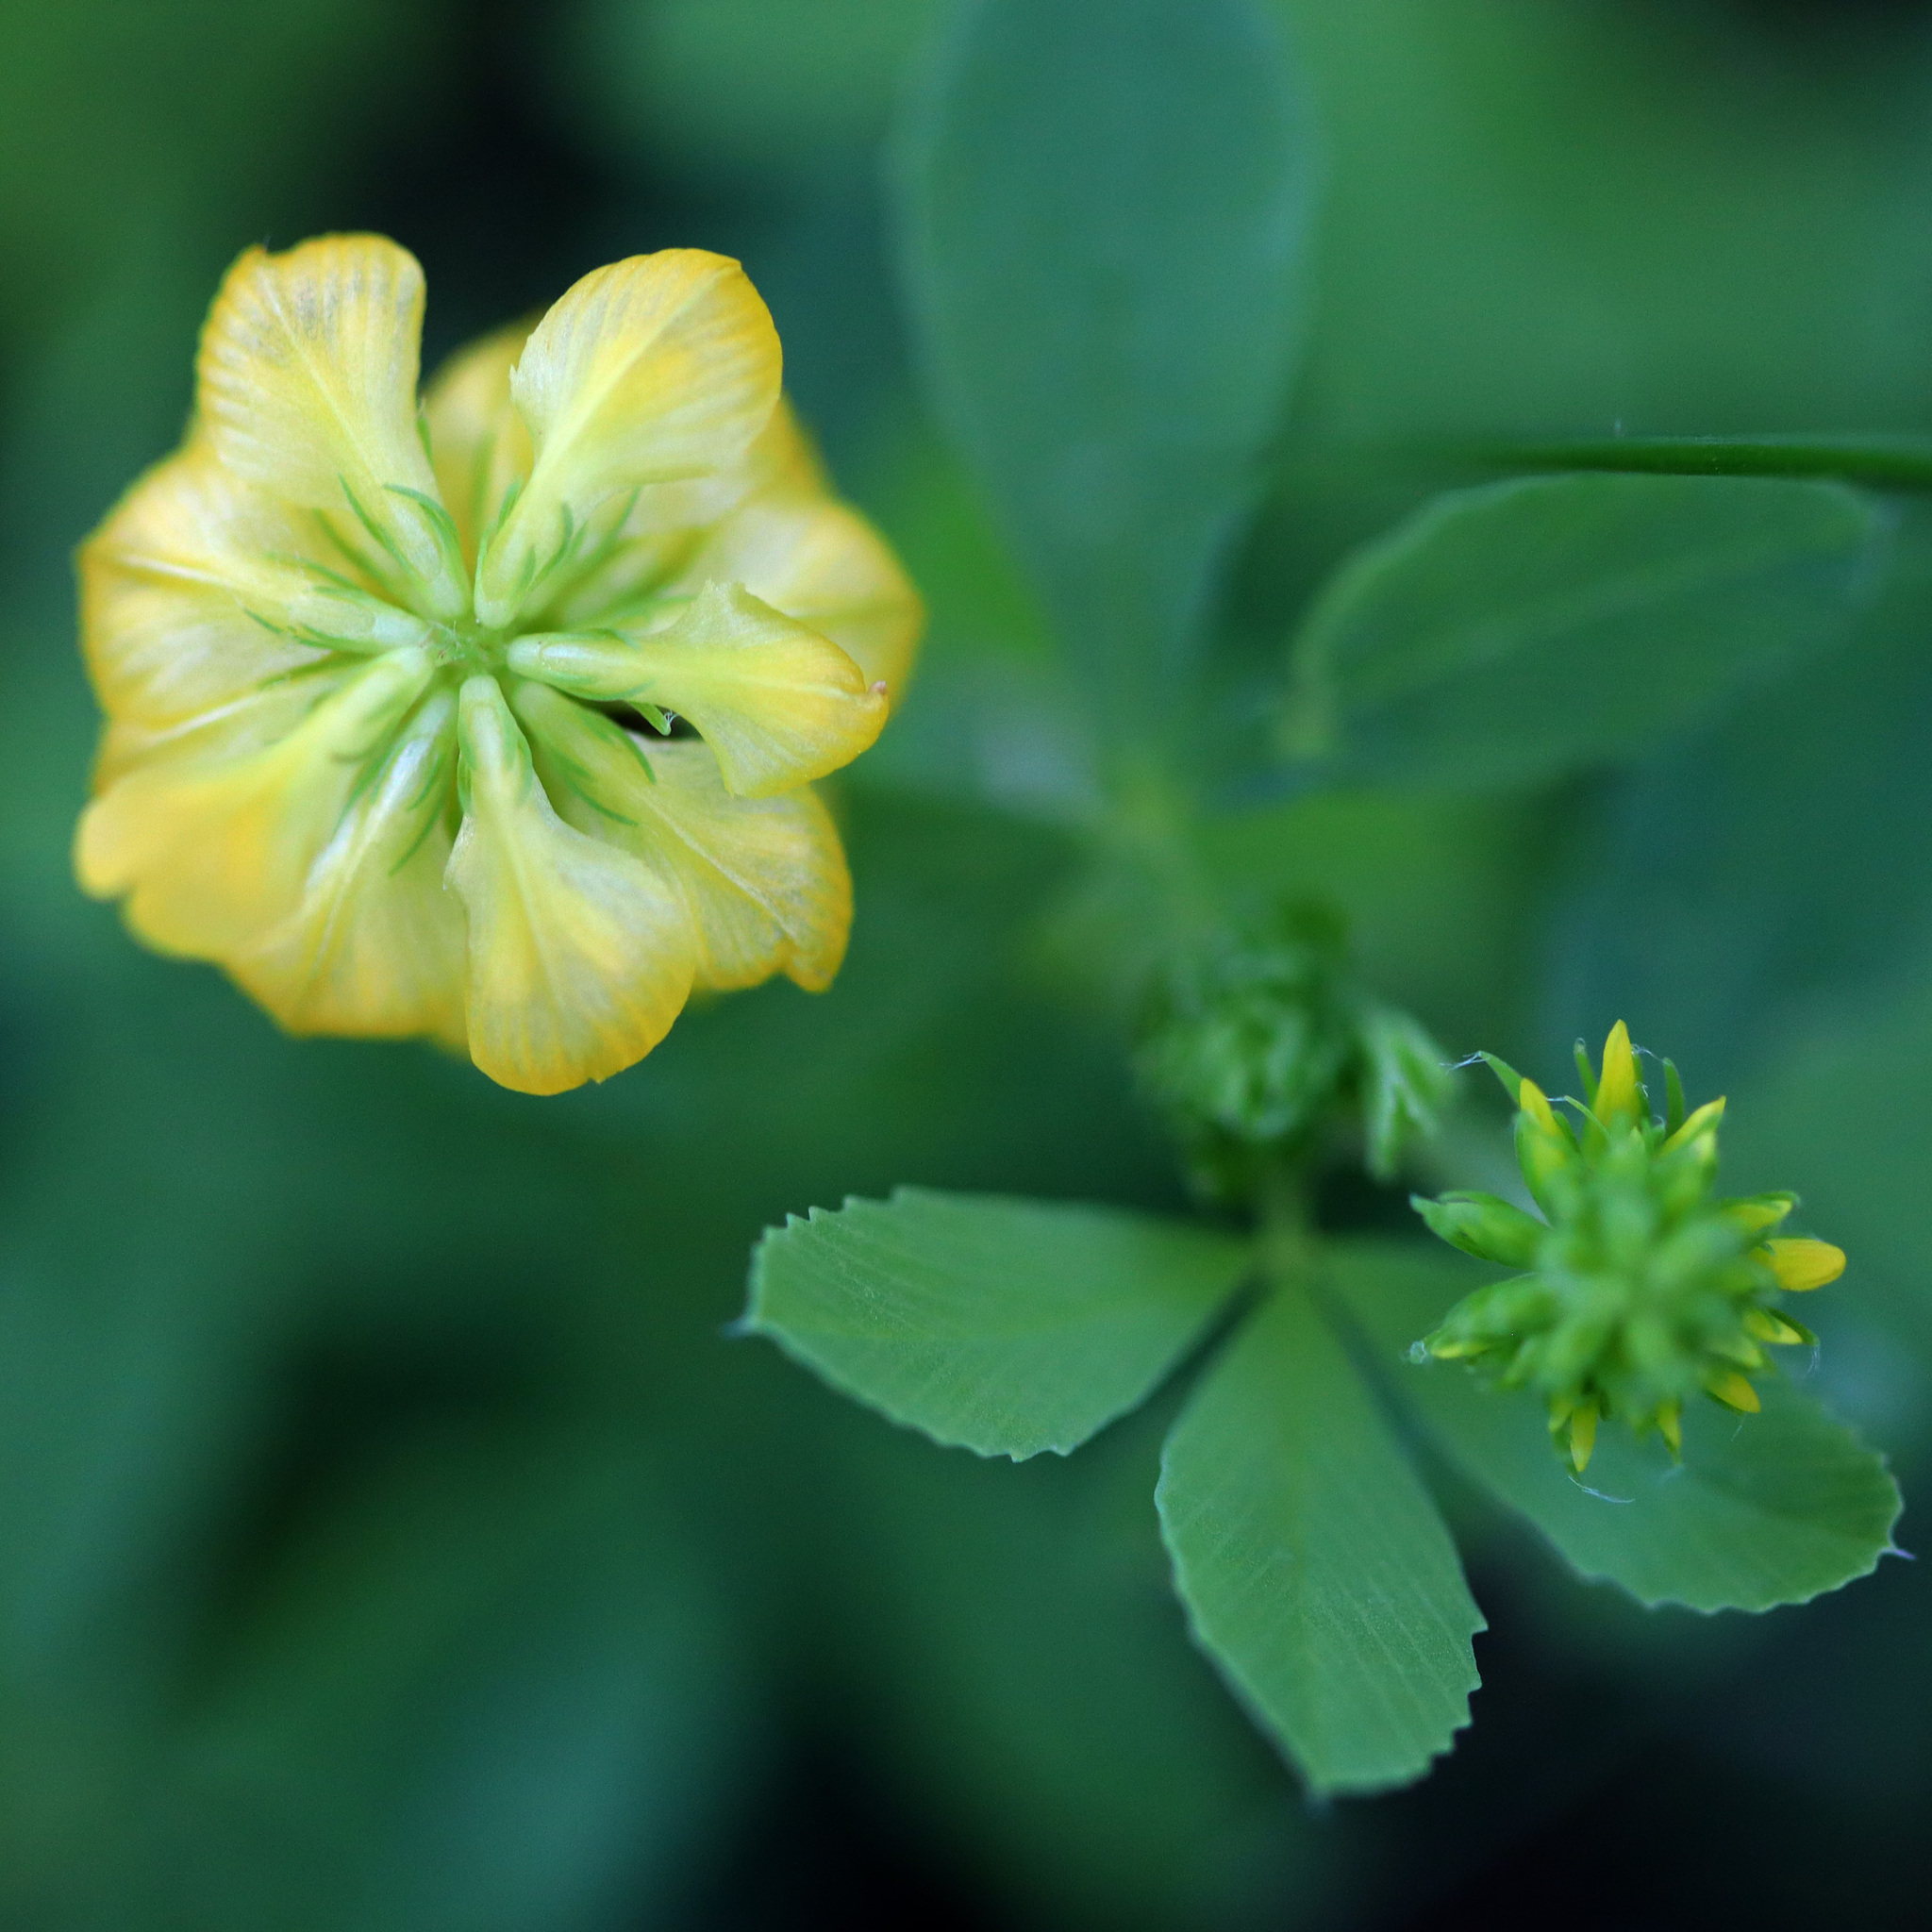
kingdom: Plantae
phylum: Tracheophyta
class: Magnoliopsida
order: Fabales
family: Fabaceae
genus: Trifolium
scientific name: Trifolium aureum
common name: Golden clover
